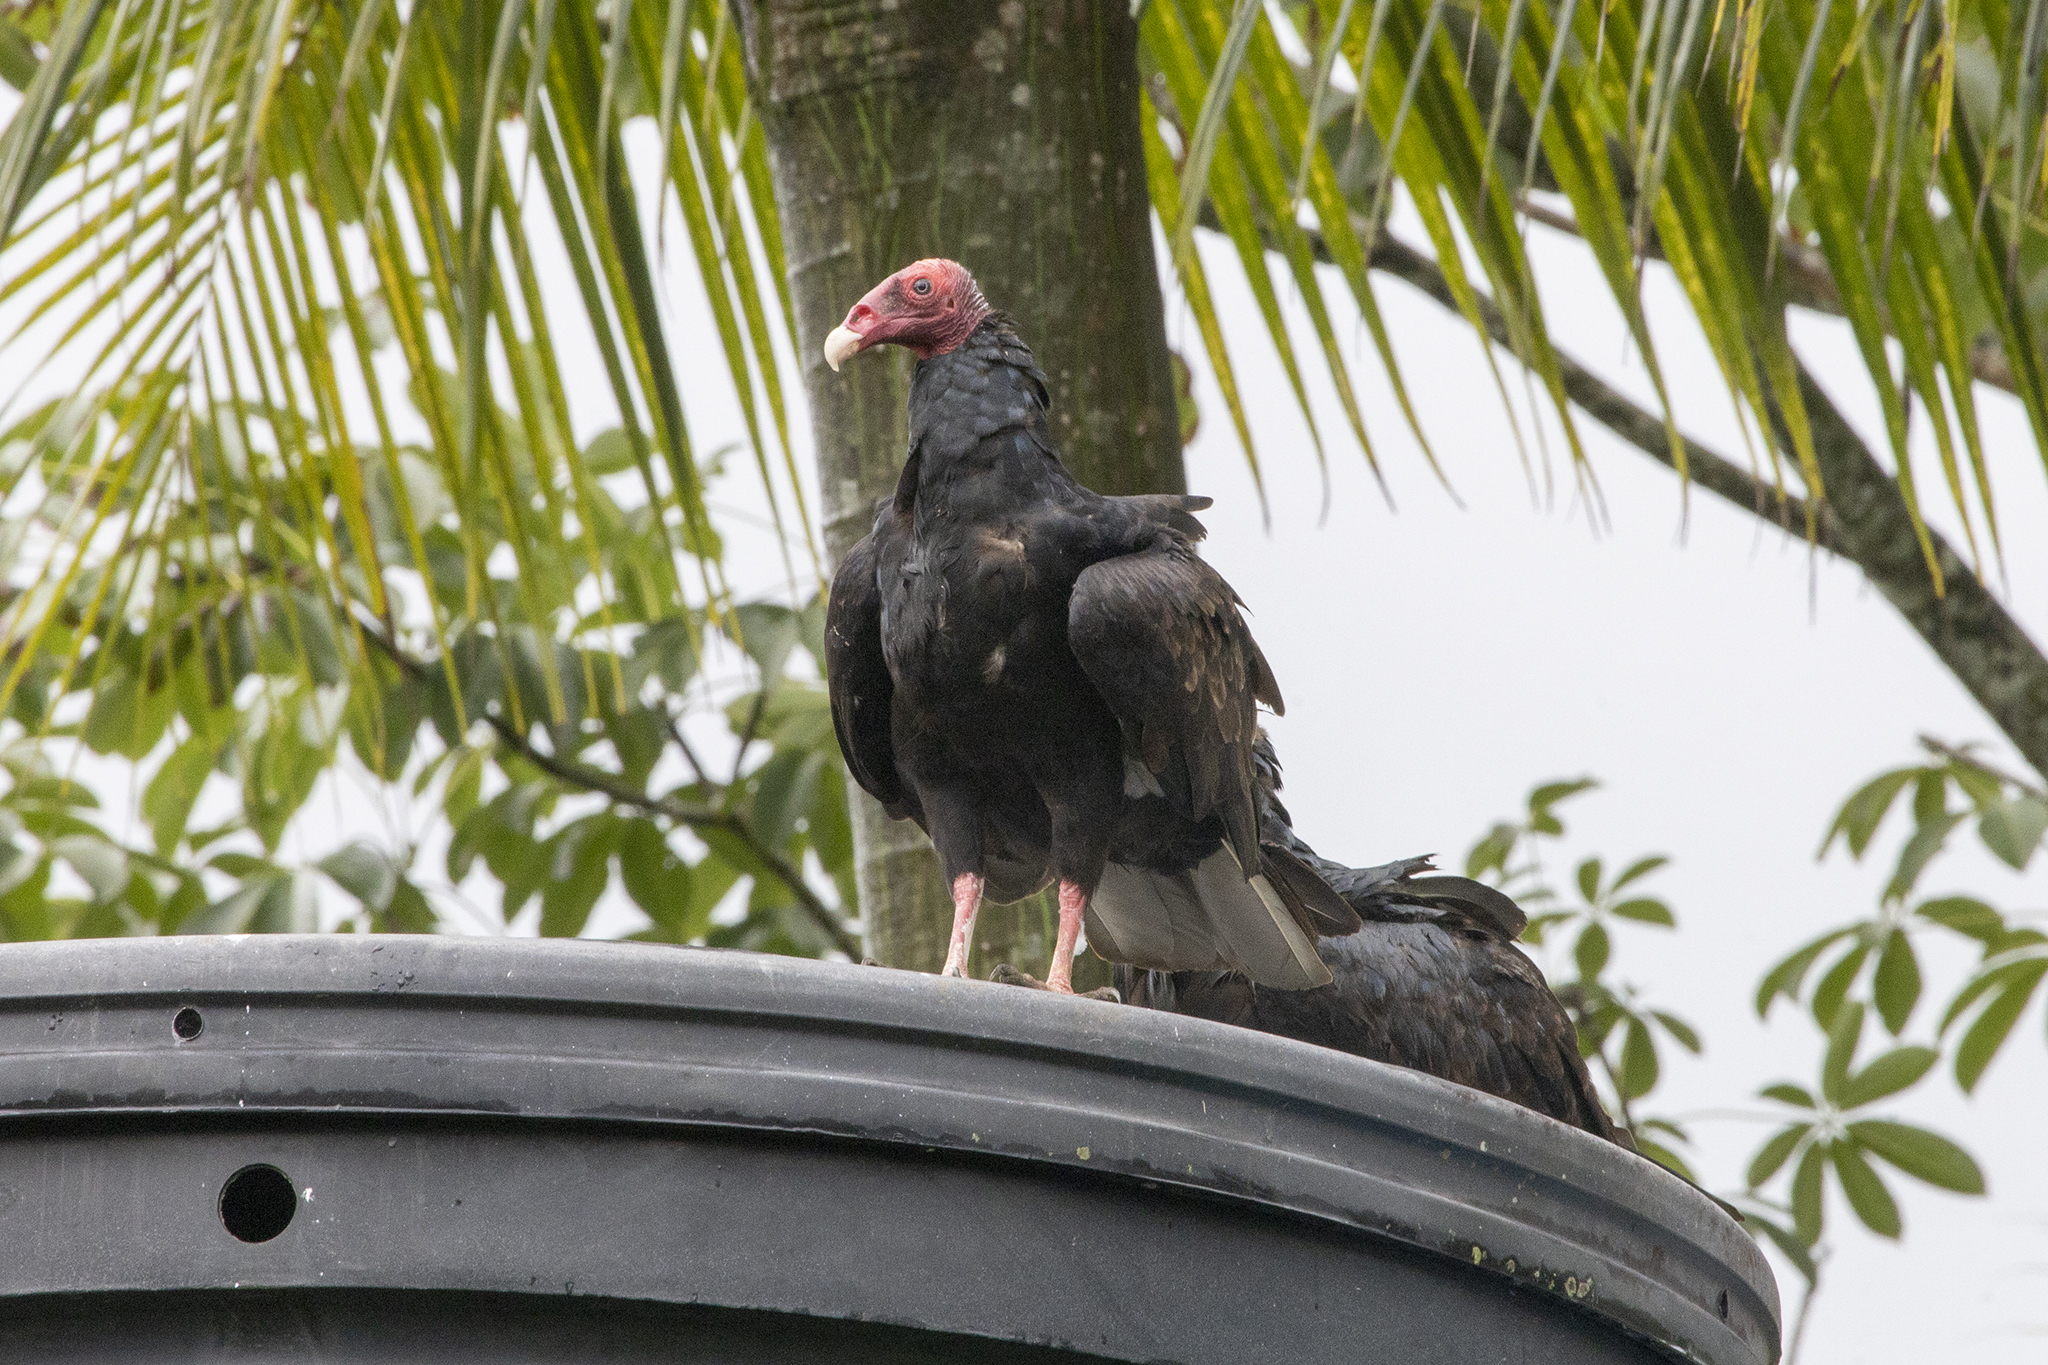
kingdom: Animalia
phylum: Chordata
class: Aves
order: Accipitriformes
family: Cathartidae
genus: Cathartes
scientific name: Cathartes aura
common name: Turkey vulture
